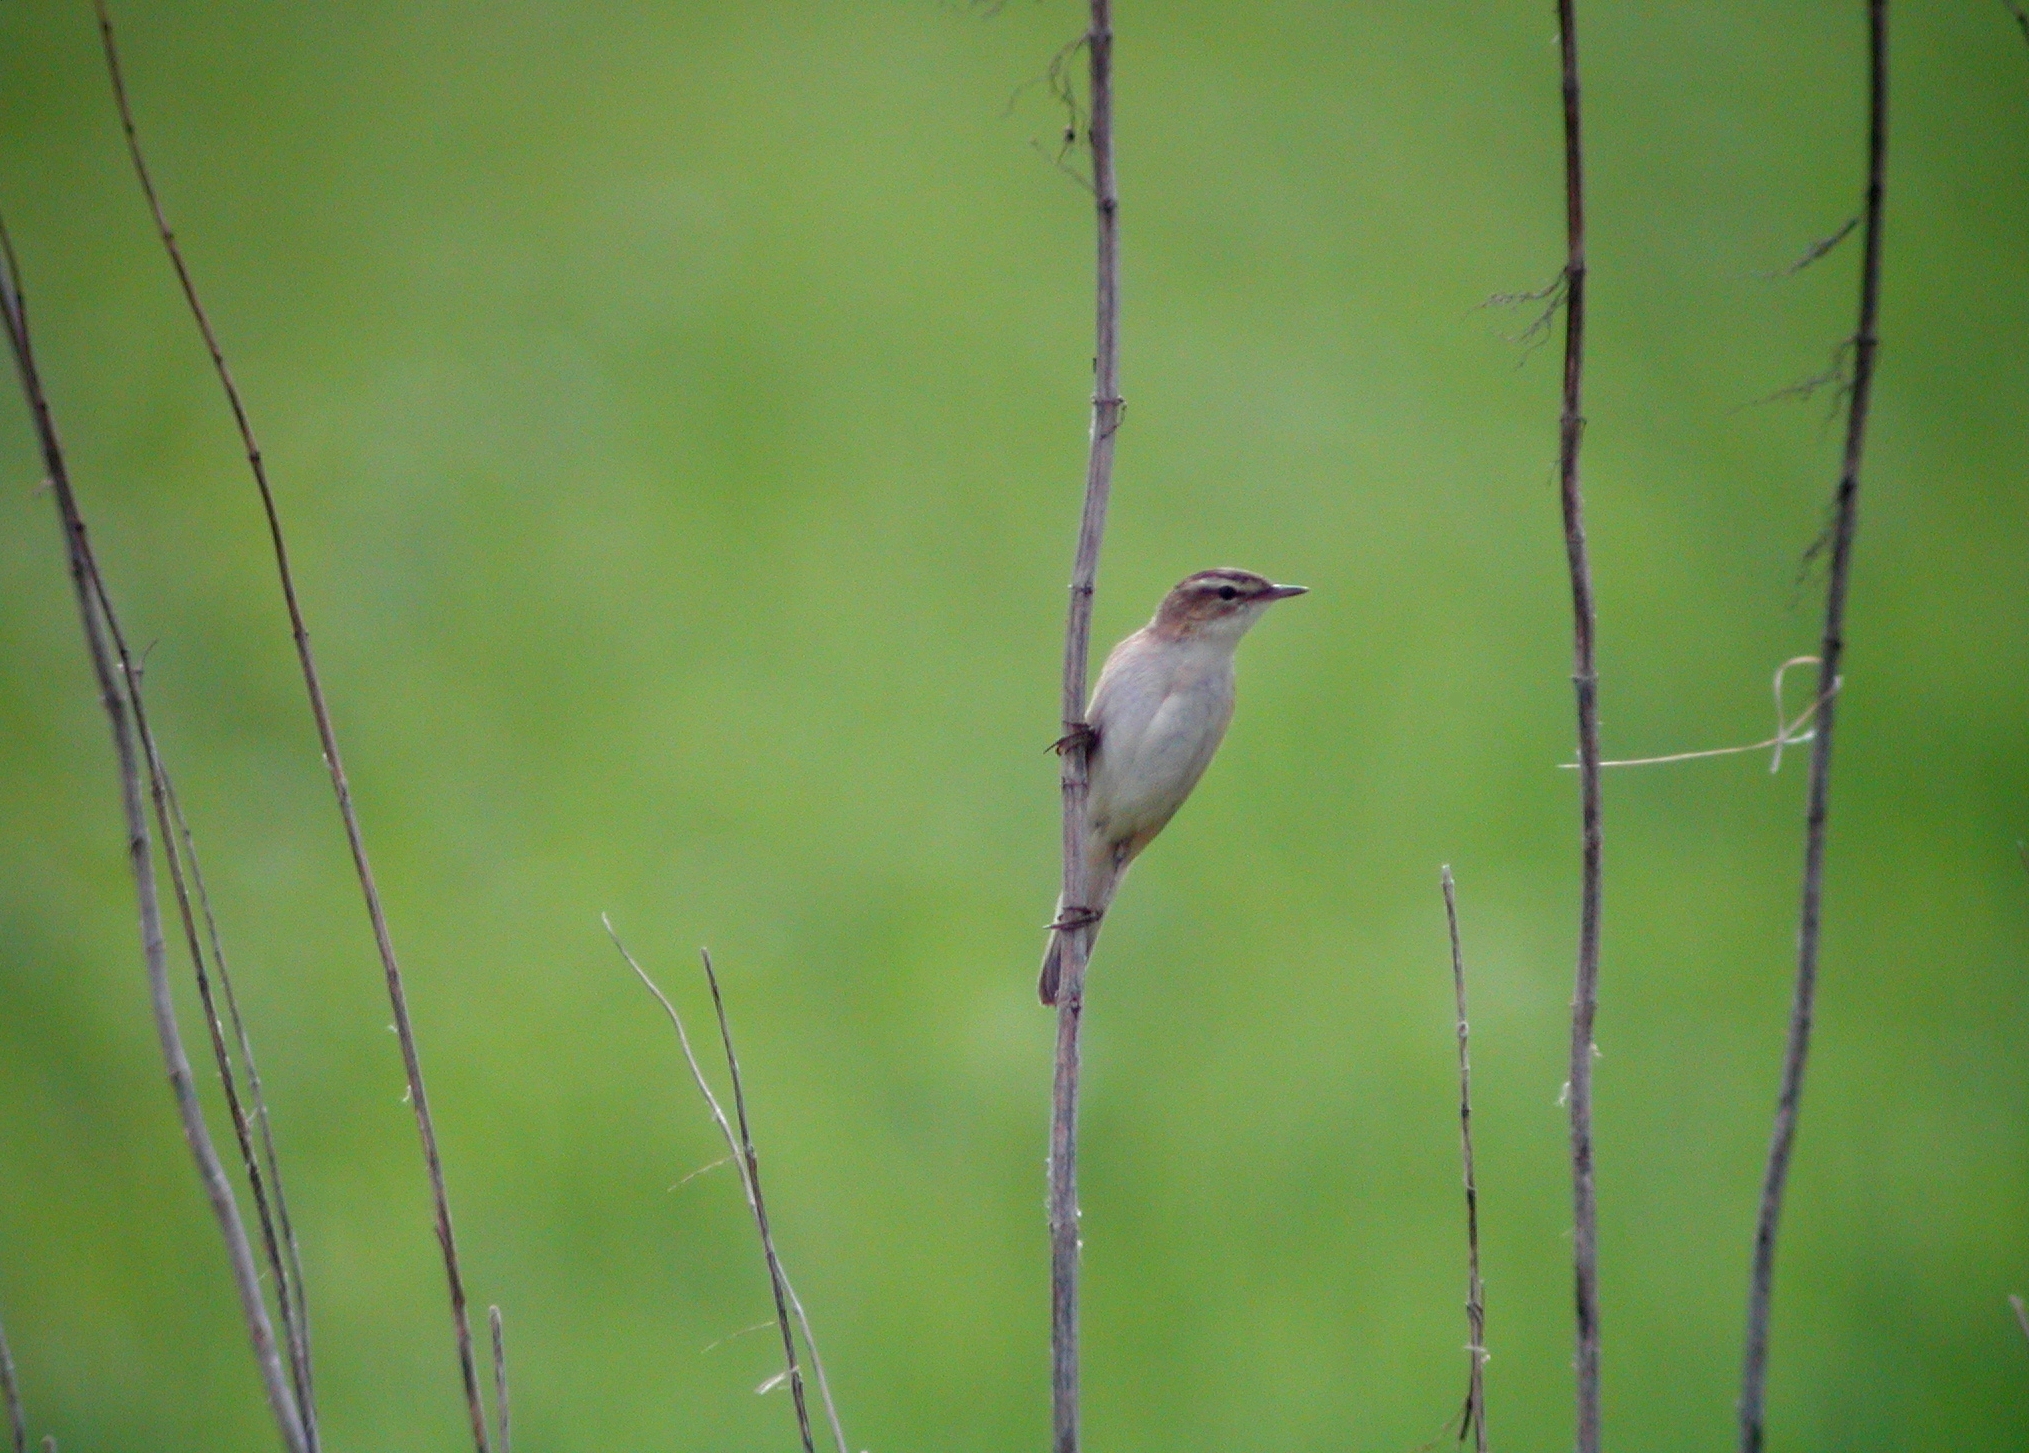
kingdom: Animalia
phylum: Chordata
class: Aves
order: Passeriformes
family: Acrocephalidae
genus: Acrocephalus
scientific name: Acrocephalus schoenobaenus
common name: Sedge warbler
